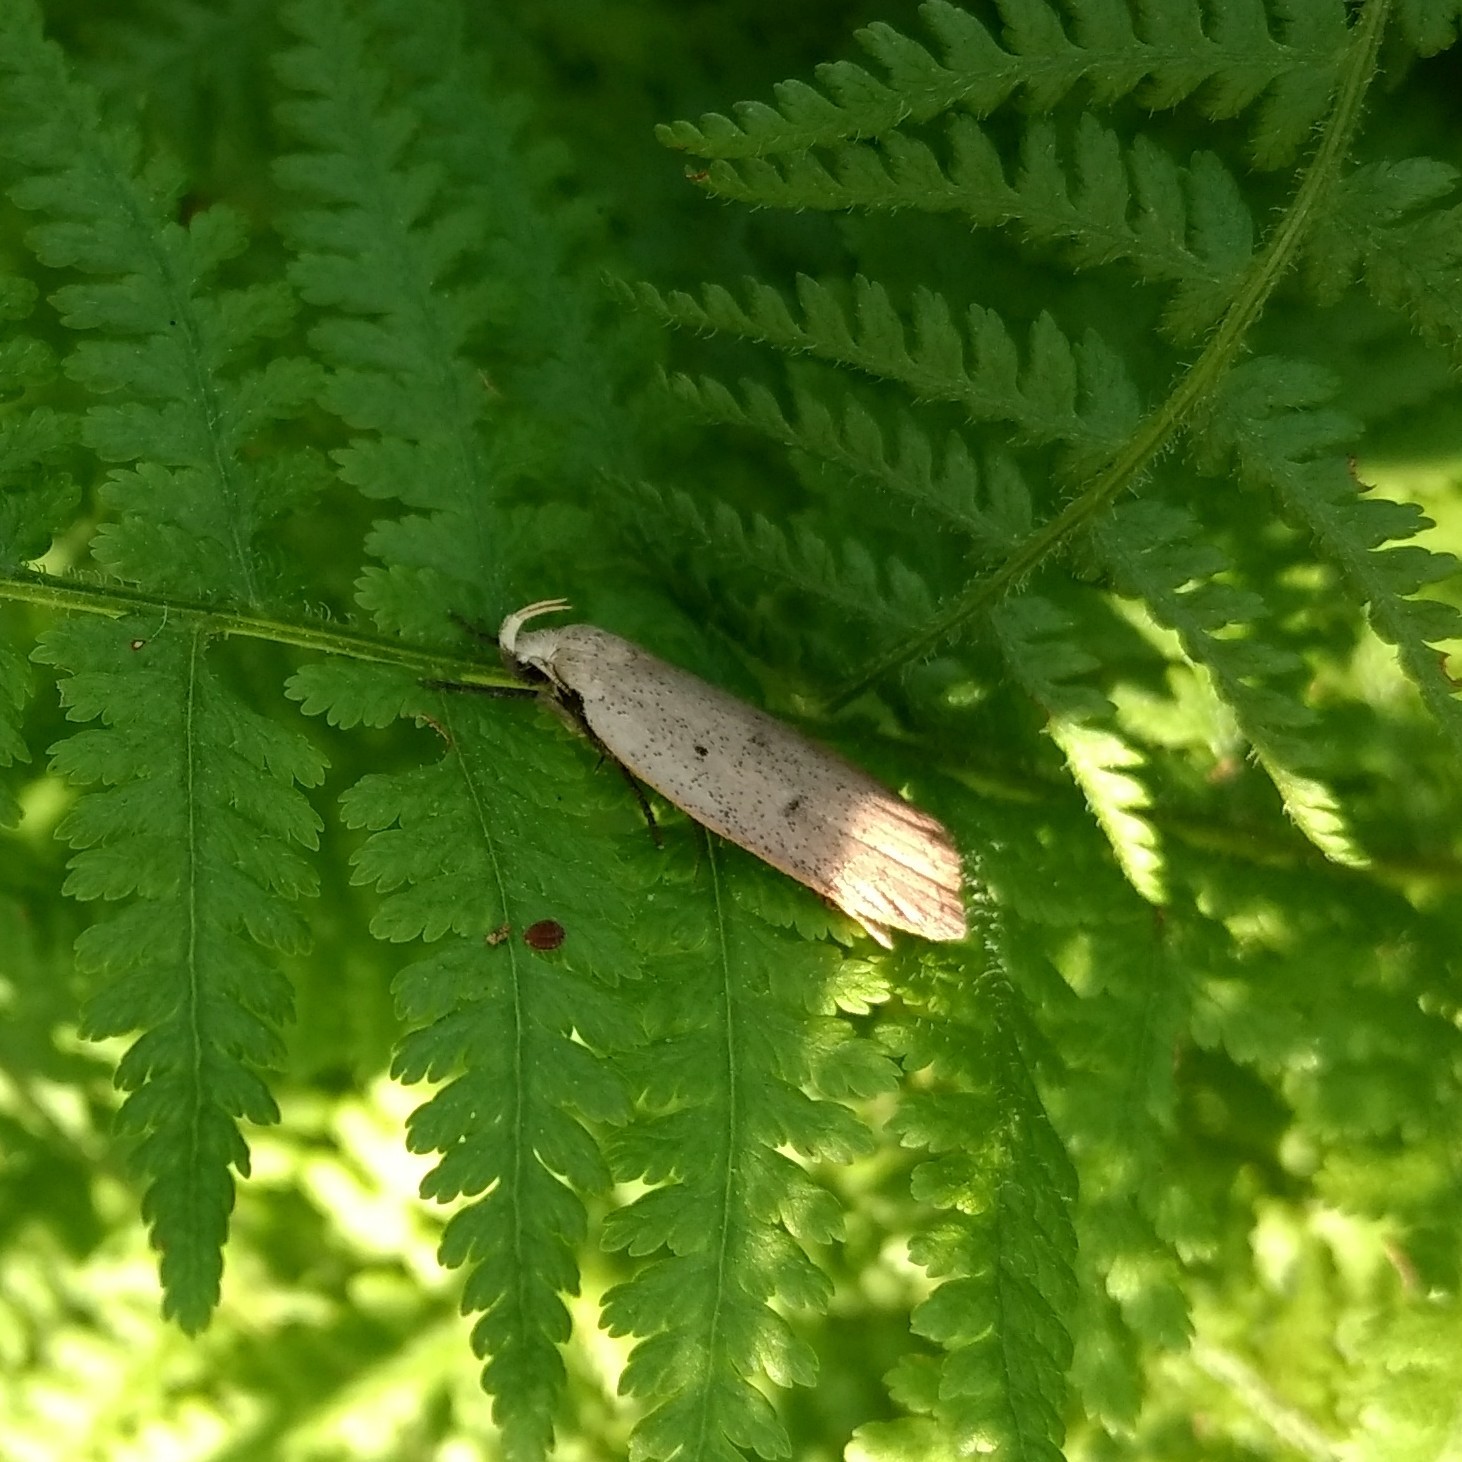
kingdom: Animalia
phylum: Arthropoda
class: Insecta
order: Lepidoptera
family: Peleopodidae
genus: Machimia
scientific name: Machimia tentoriferella
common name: Gold-striped leaftier moth
